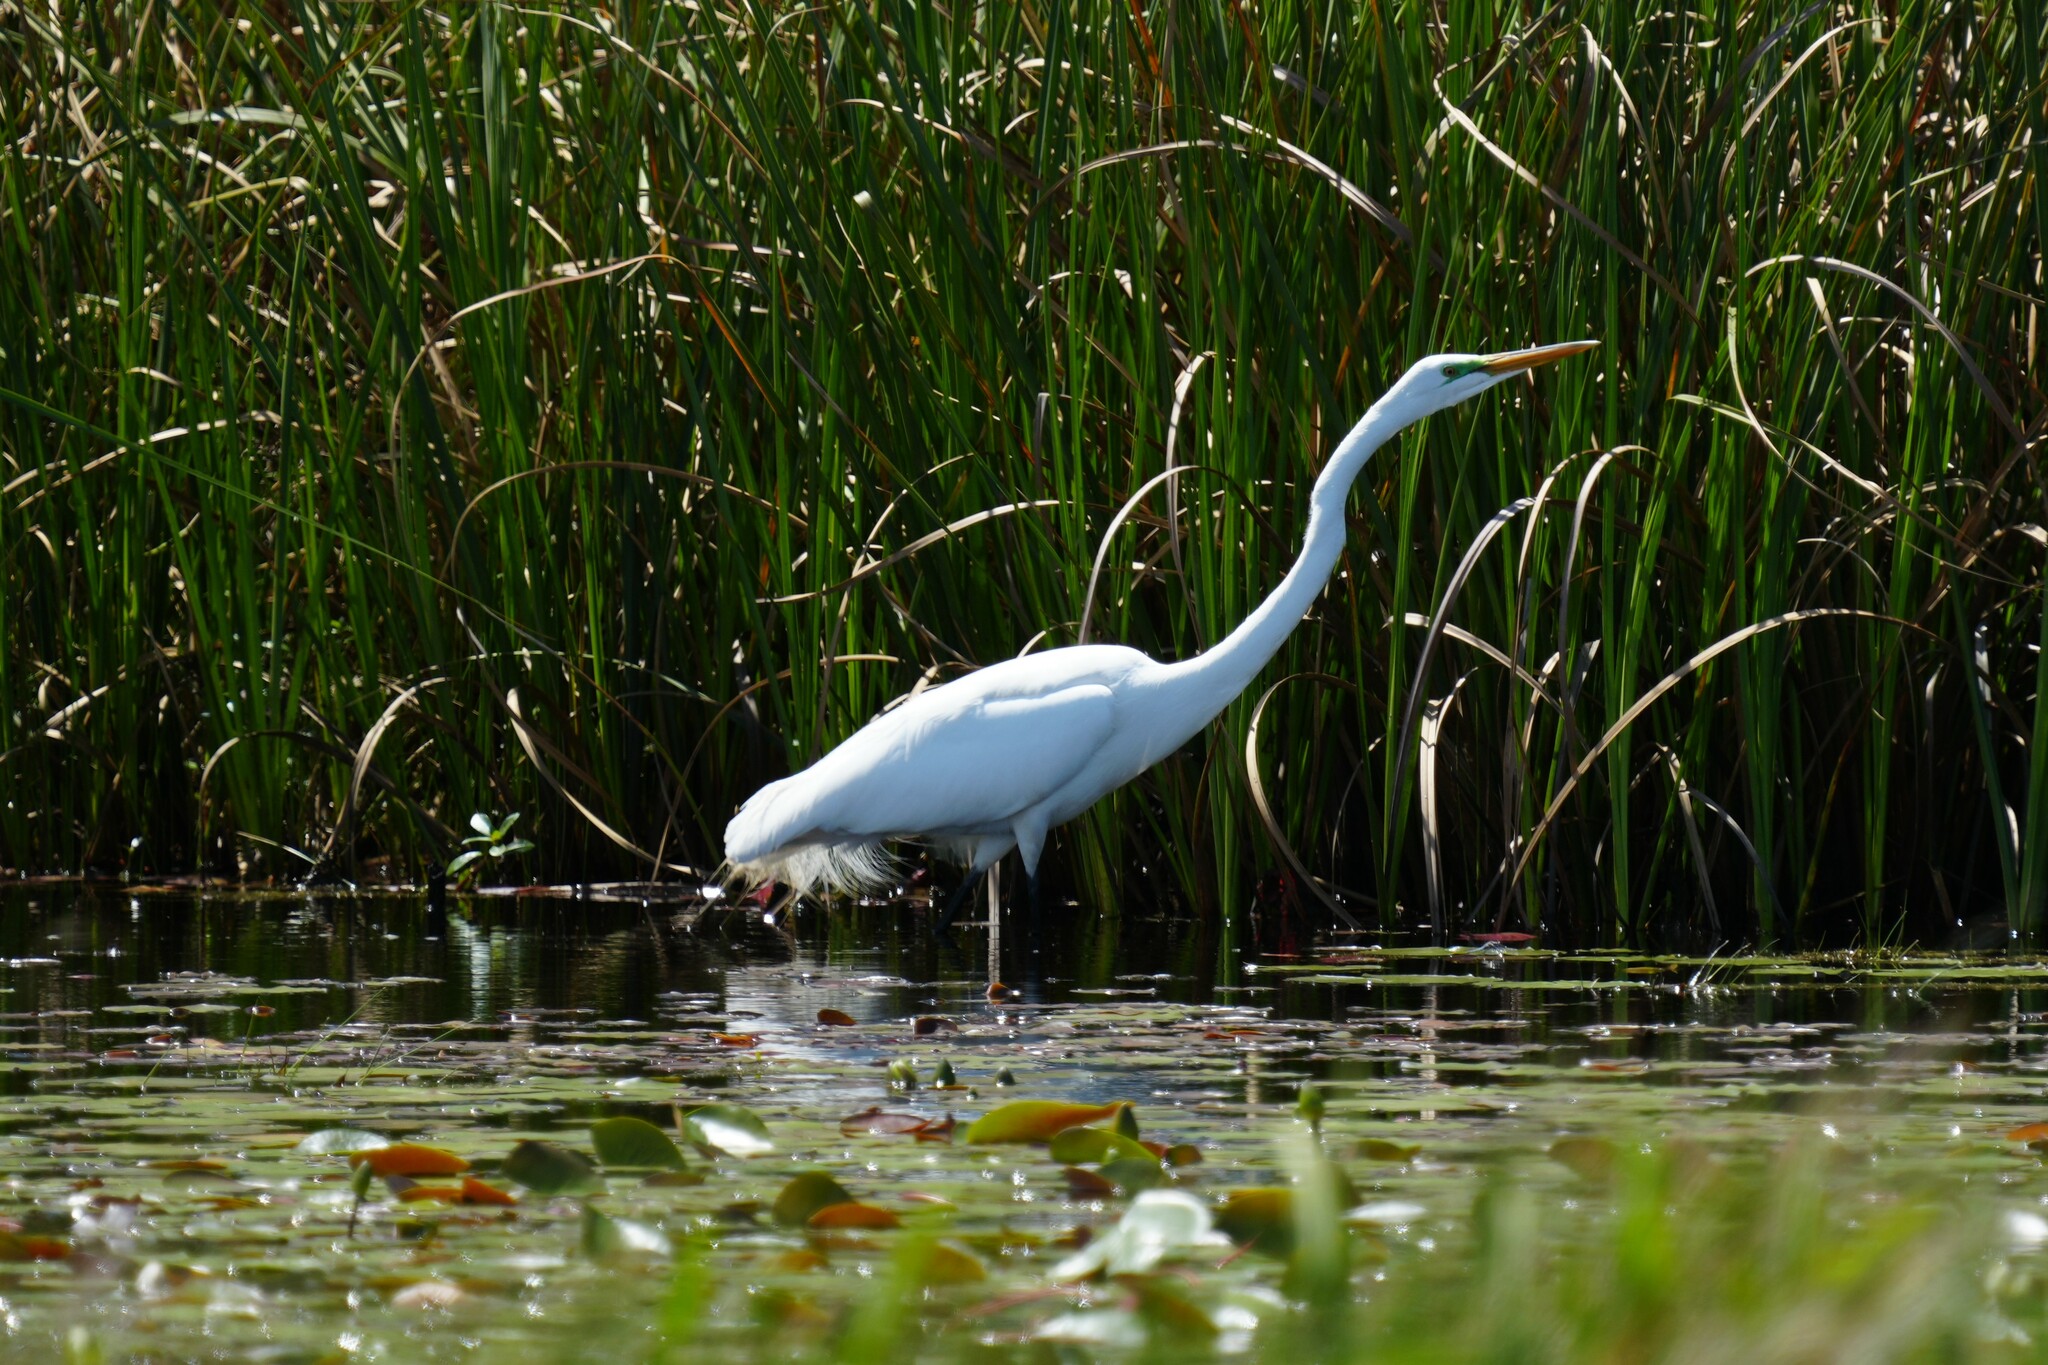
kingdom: Animalia
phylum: Chordata
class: Aves
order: Pelecaniformes
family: Ardeidae
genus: Ardea
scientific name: Ardea alba
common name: Great egret
